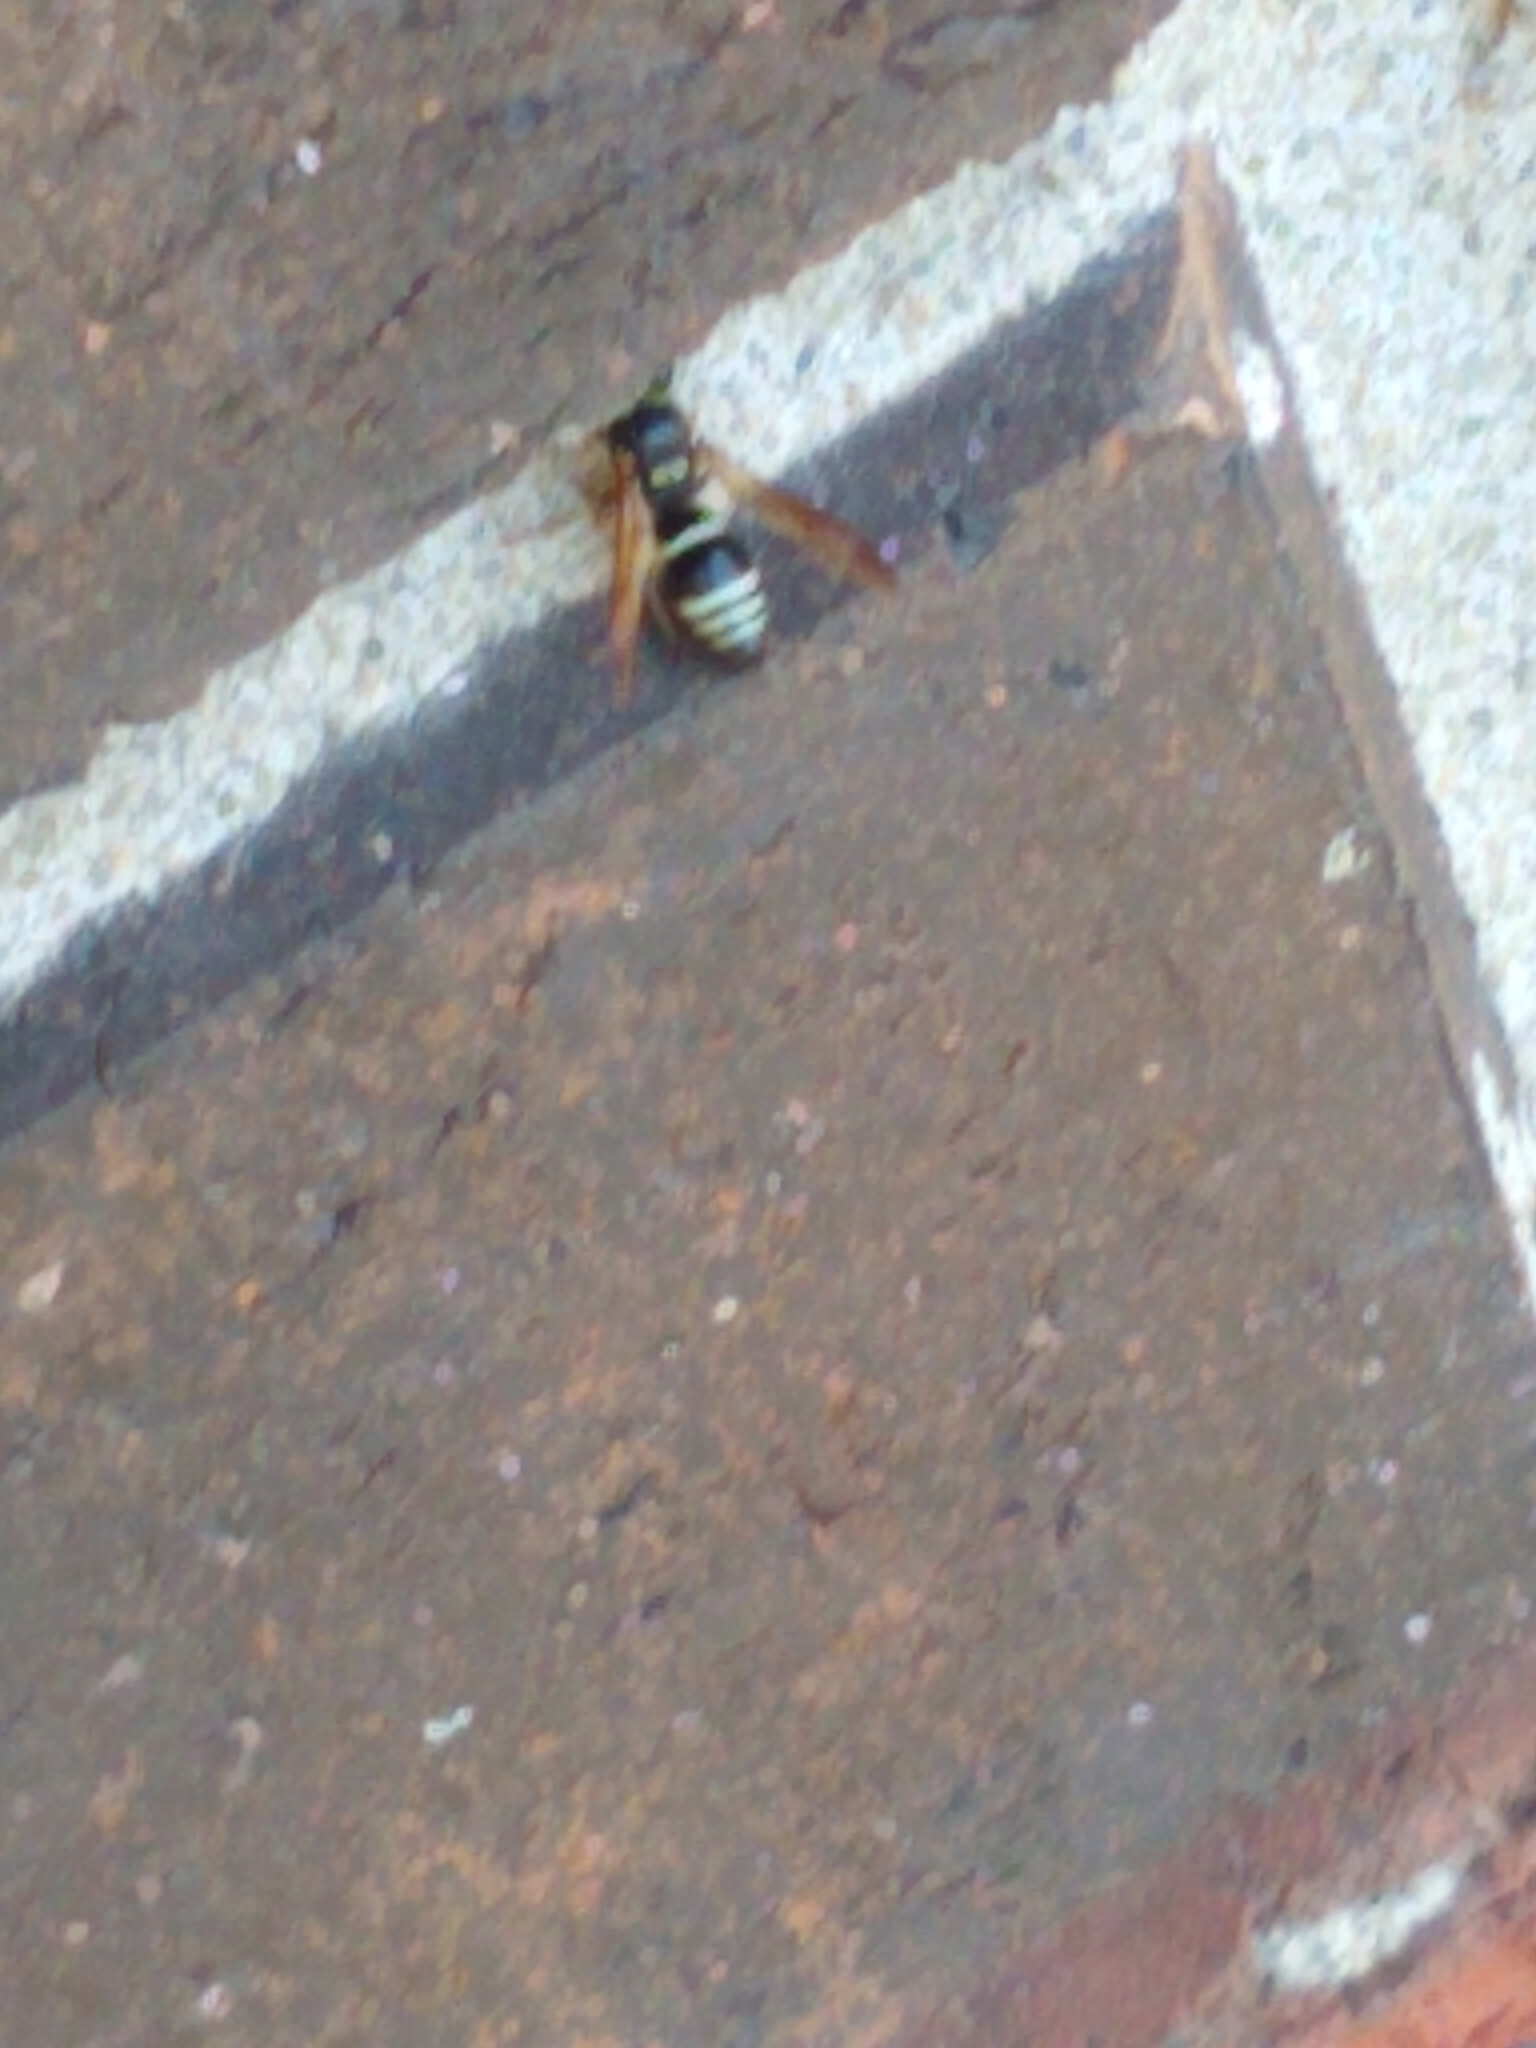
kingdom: Animalia
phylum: Arthropoda
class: Insecta
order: Hymenoptera
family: Vespidae
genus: Ancistrocerus
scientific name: Ancistrocerus
